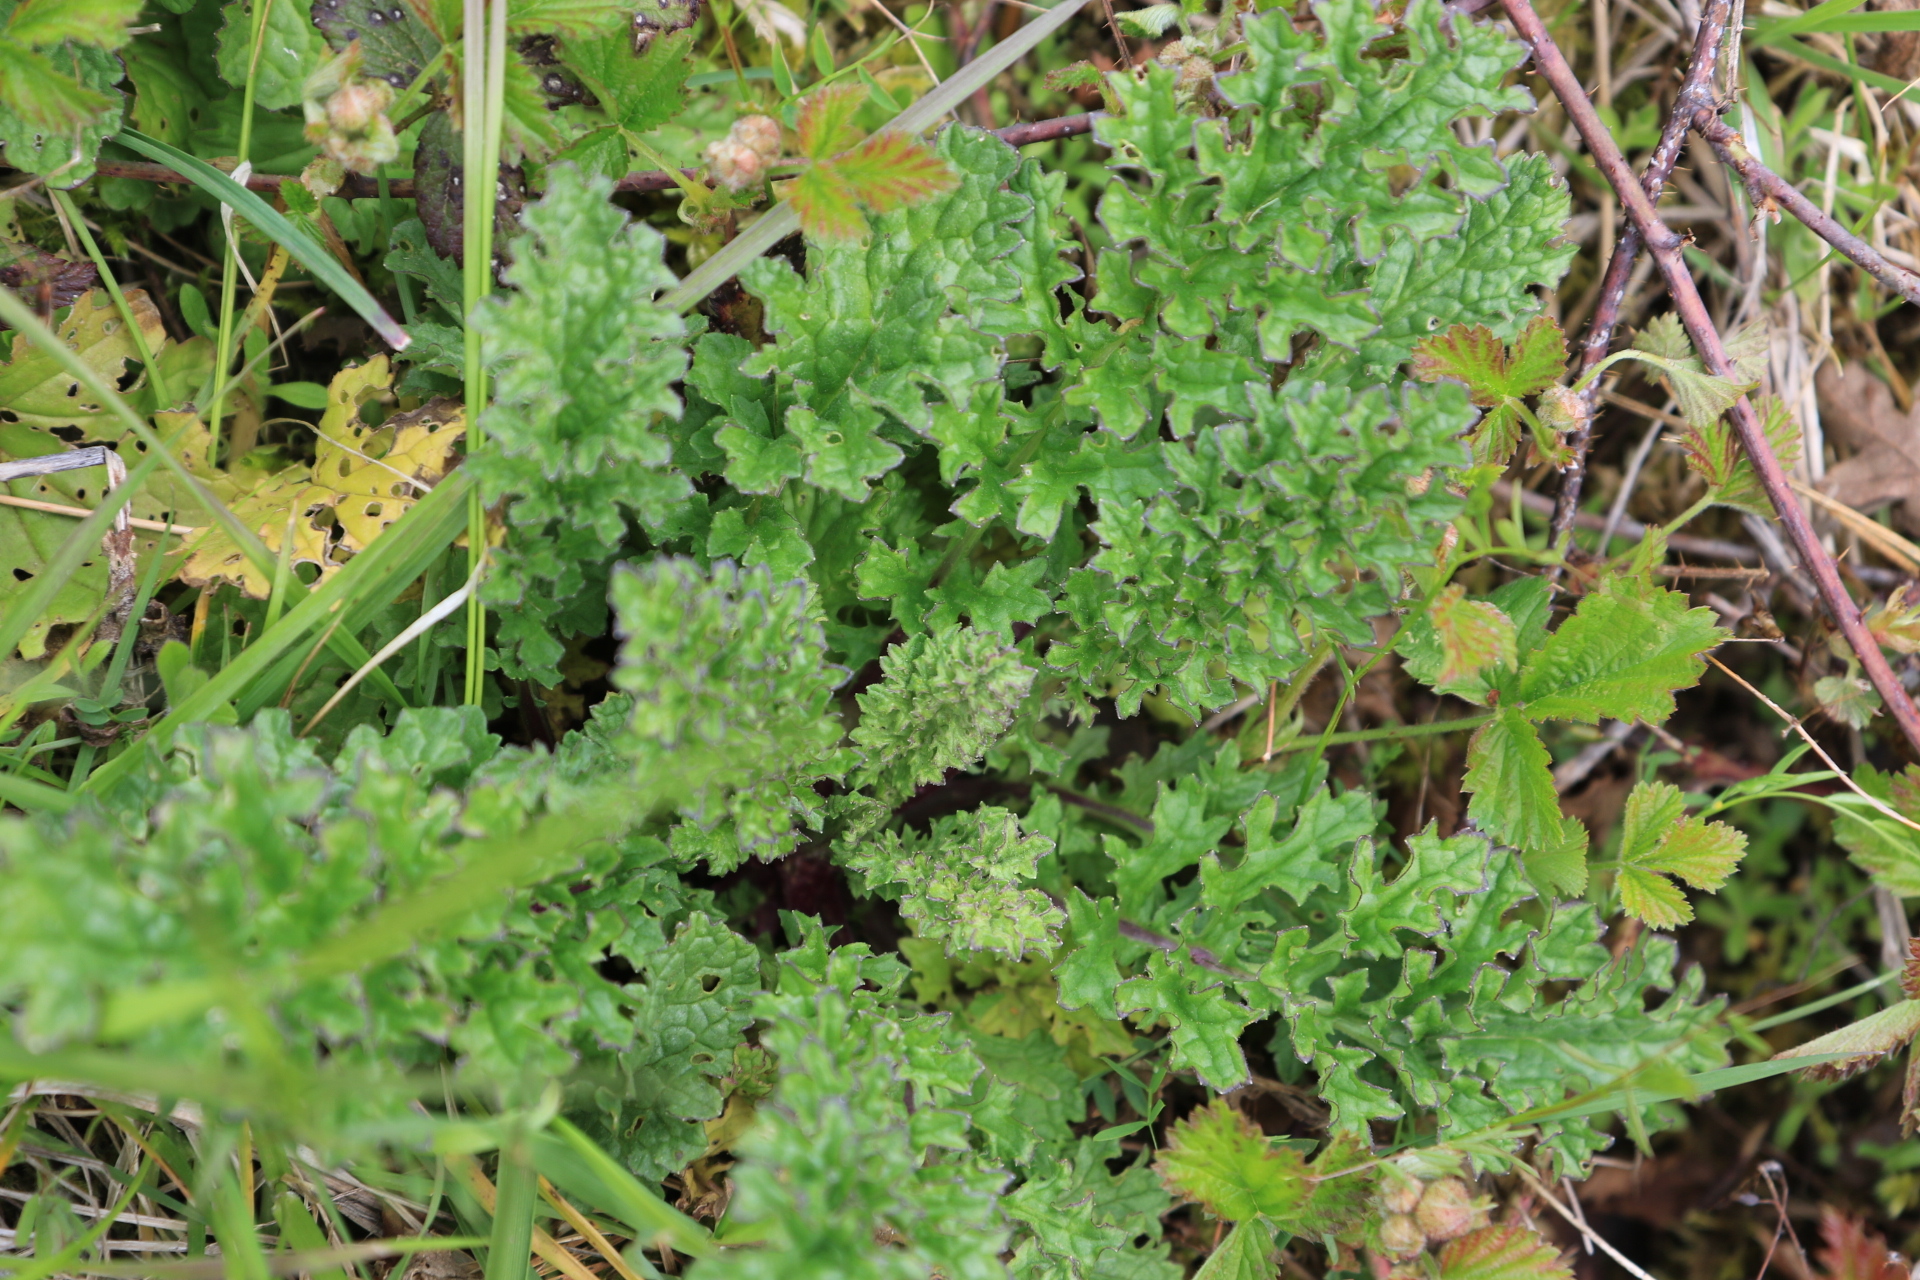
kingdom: Plantae
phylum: Tracheophyta
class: Magnoliopsida
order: Asterales
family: Asteraceae
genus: Jacobaea
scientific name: Jacobaea vulgaris
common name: Stinking willie
